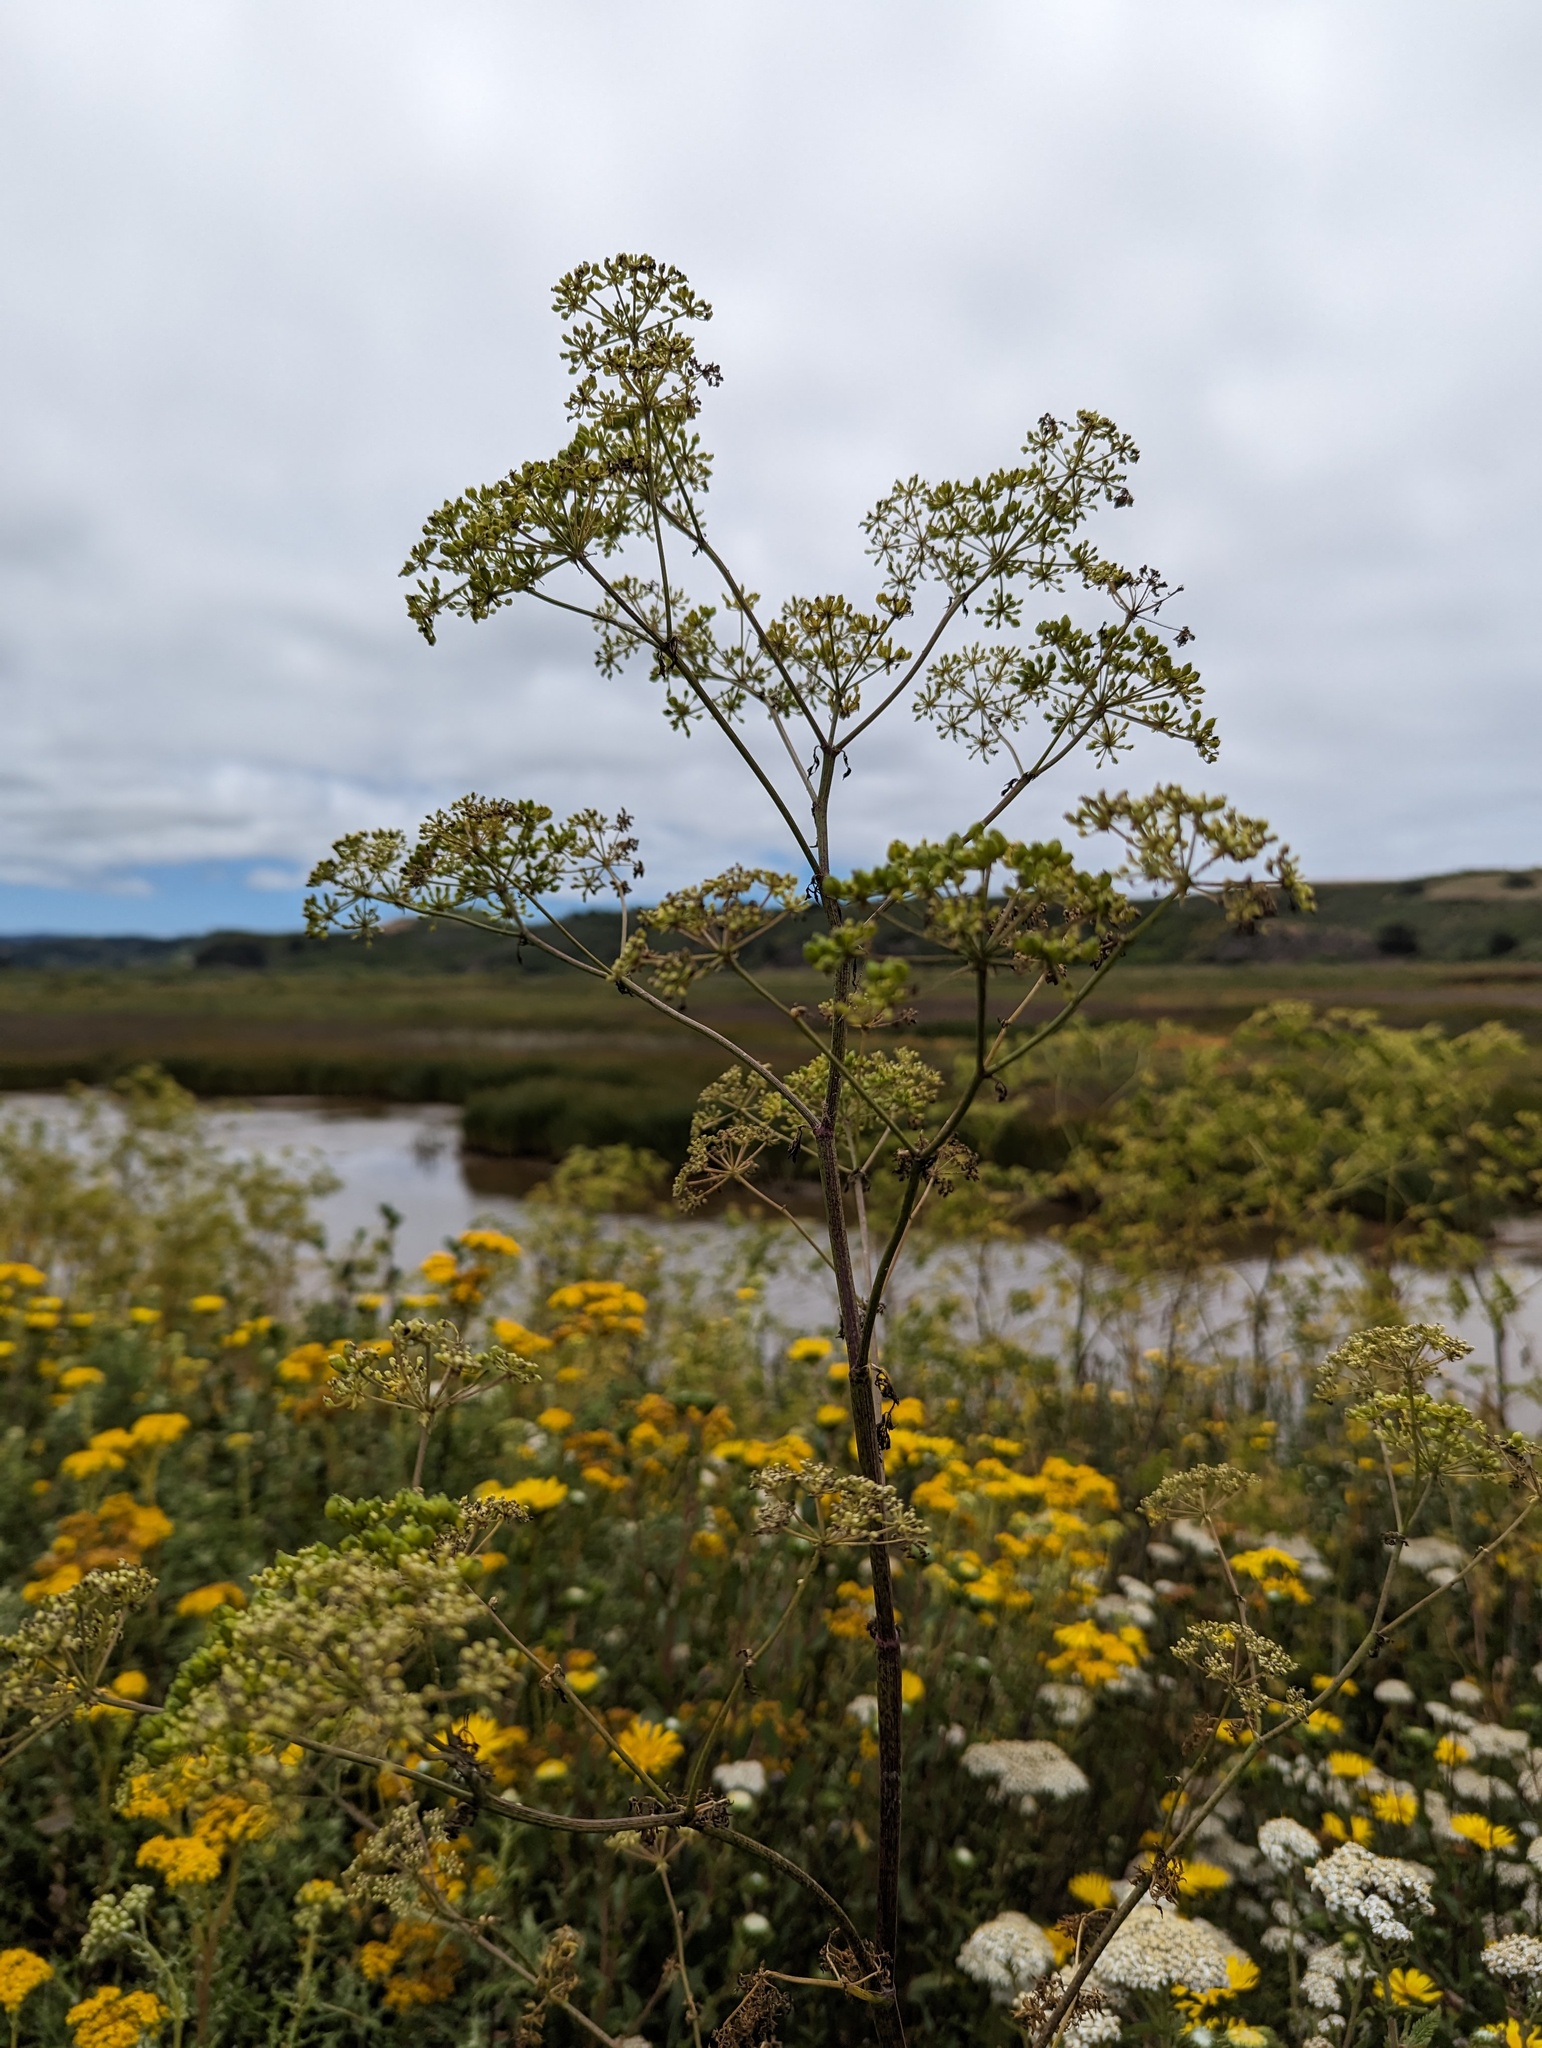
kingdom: Plantae
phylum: Tracheophyta
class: Magnoliopsida
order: Apiales
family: Apiaceae
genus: Conium
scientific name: Conium maculatum
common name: Hemlock
